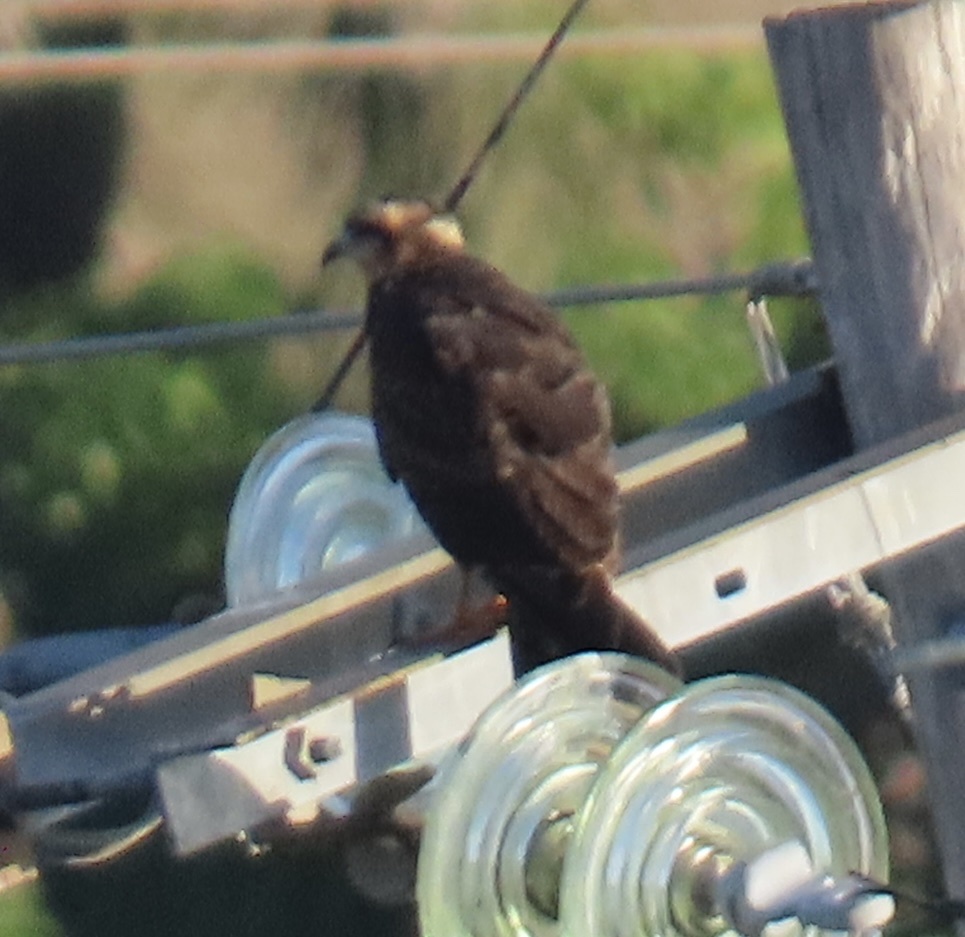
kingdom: Animalia
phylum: Chordata
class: Aves
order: Accipitriformes
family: Accipitridae
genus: Rostrhamus
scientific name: Rostrhamus sociabilis
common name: Snail kite
